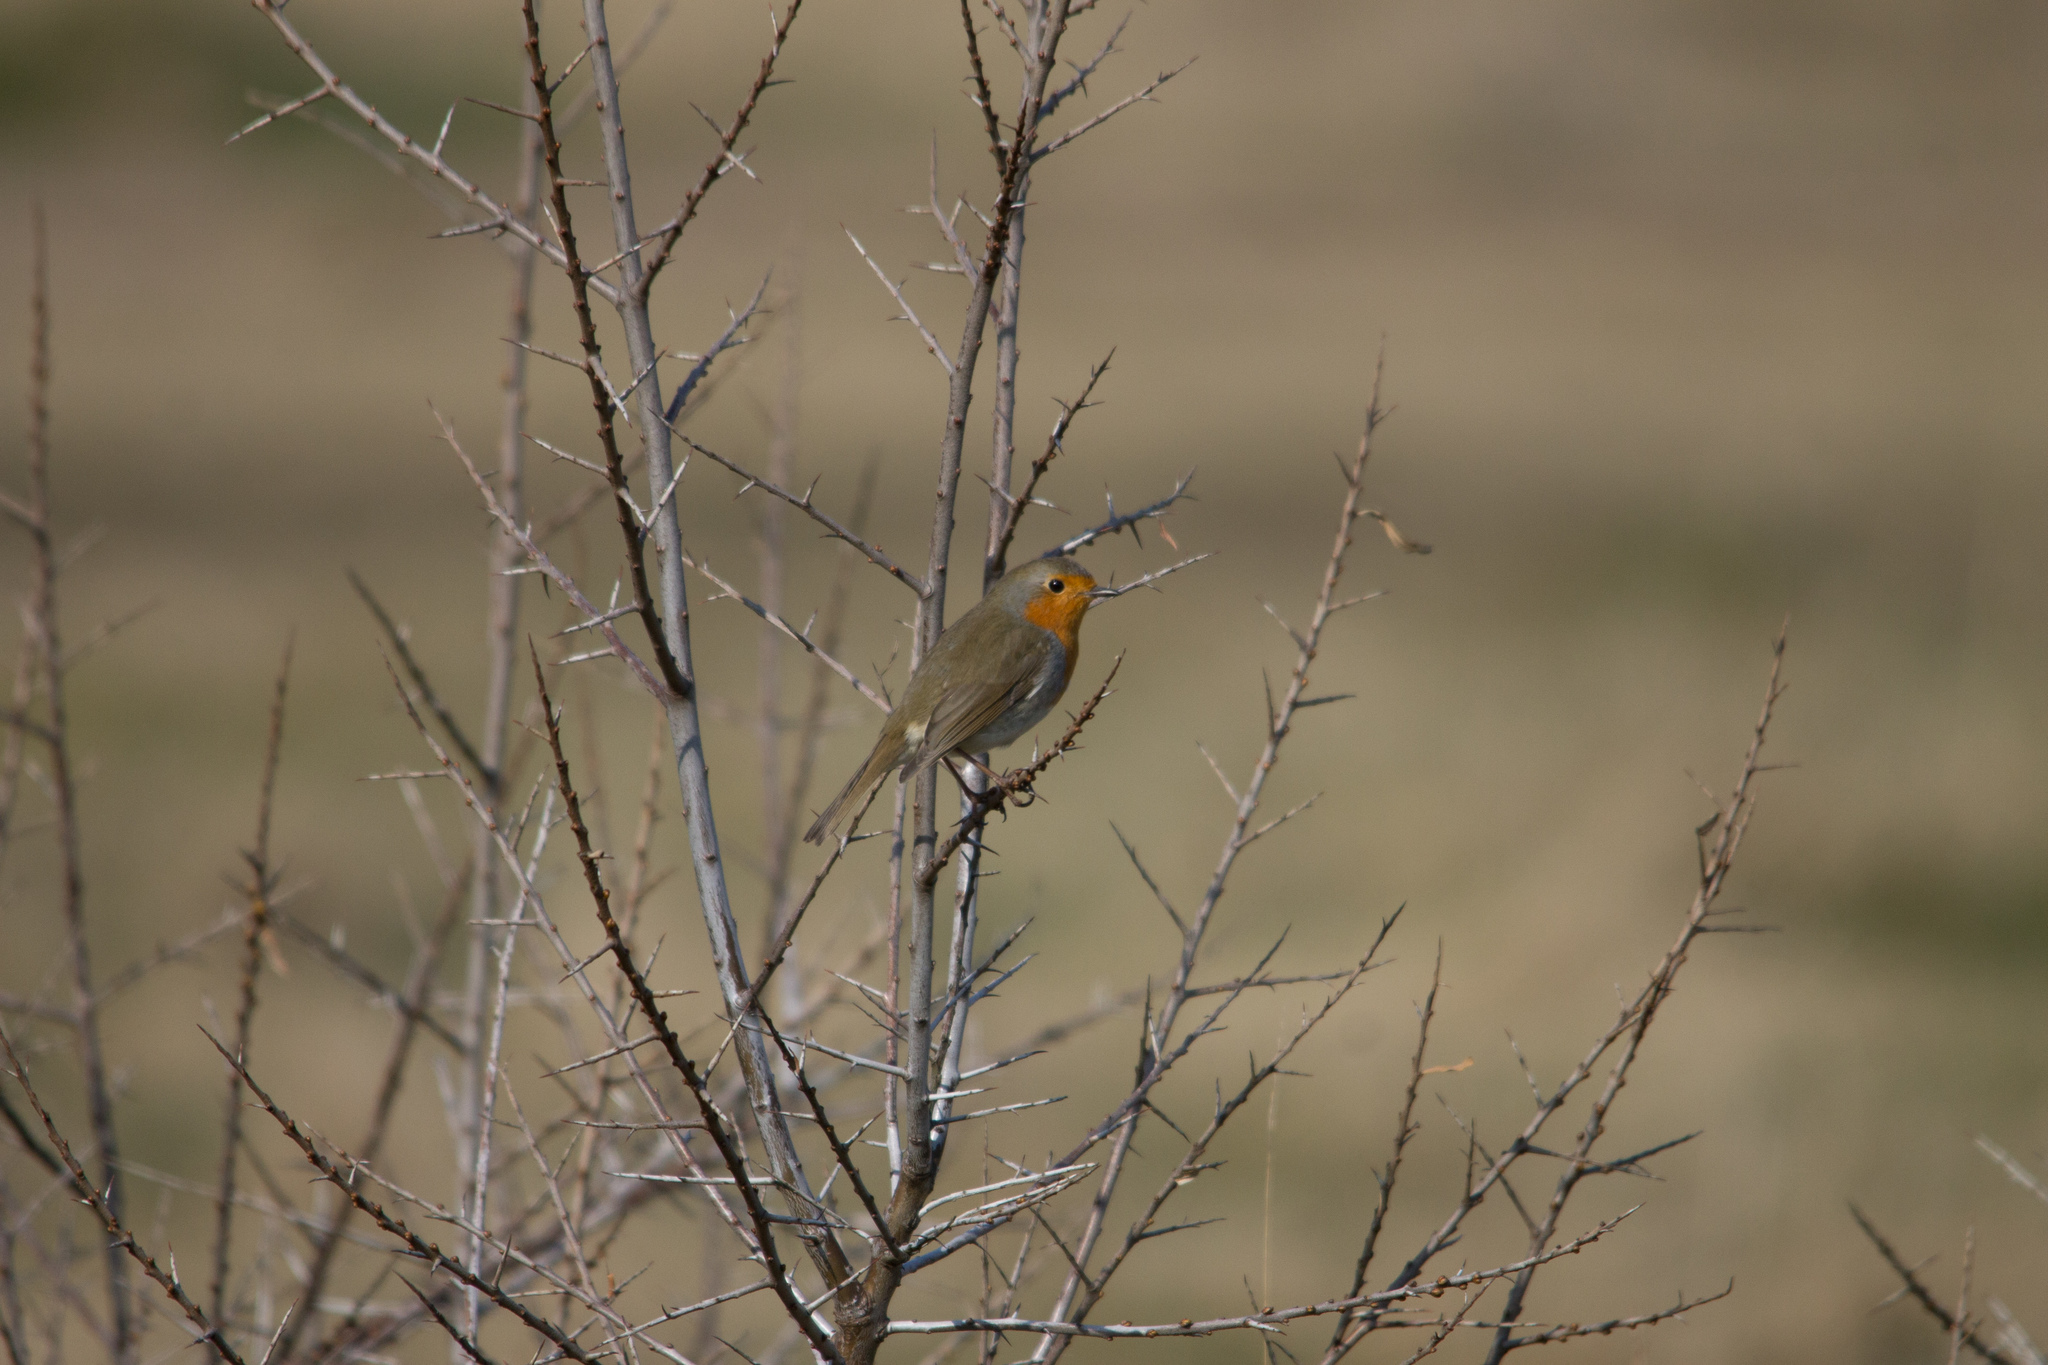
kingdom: Animalia
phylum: Chordata
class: Aves
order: Passeriformes
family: Muscicapidae
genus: Erithacus
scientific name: Erithacus rubecula
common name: European robin
